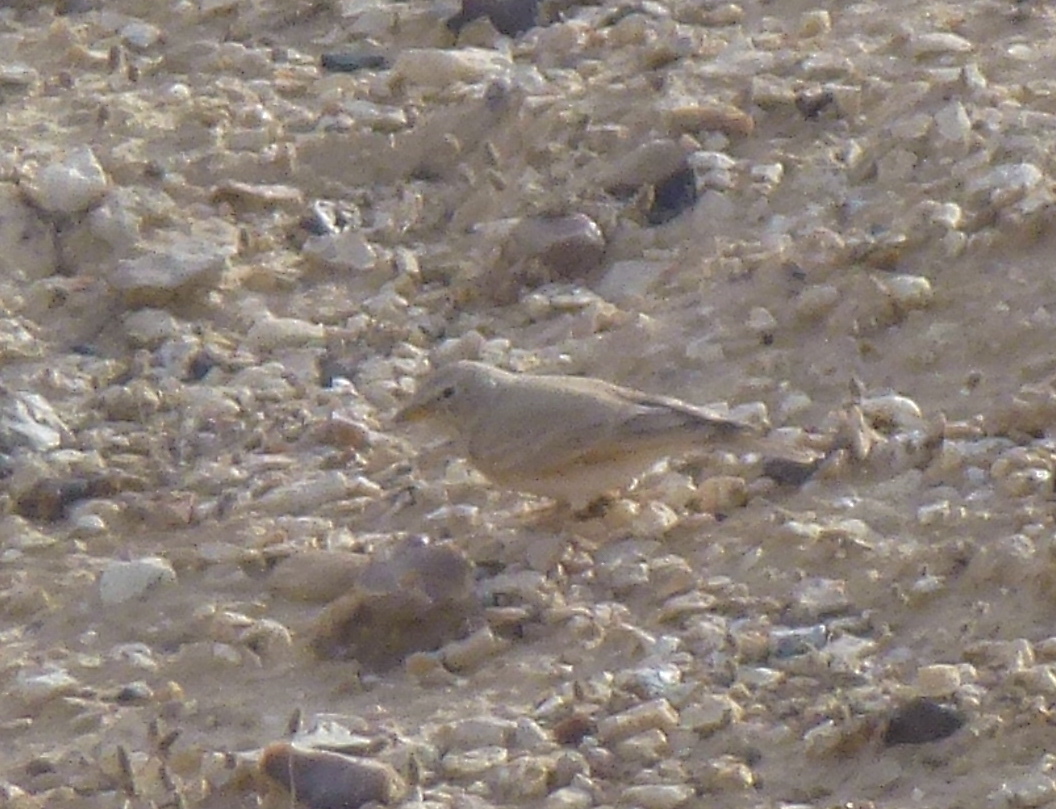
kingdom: Animalia
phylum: Chordata
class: Aves
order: Passeriformes
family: Alaudidae
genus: Ammomanes
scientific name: Ammomanes deserti
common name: Desert lark
